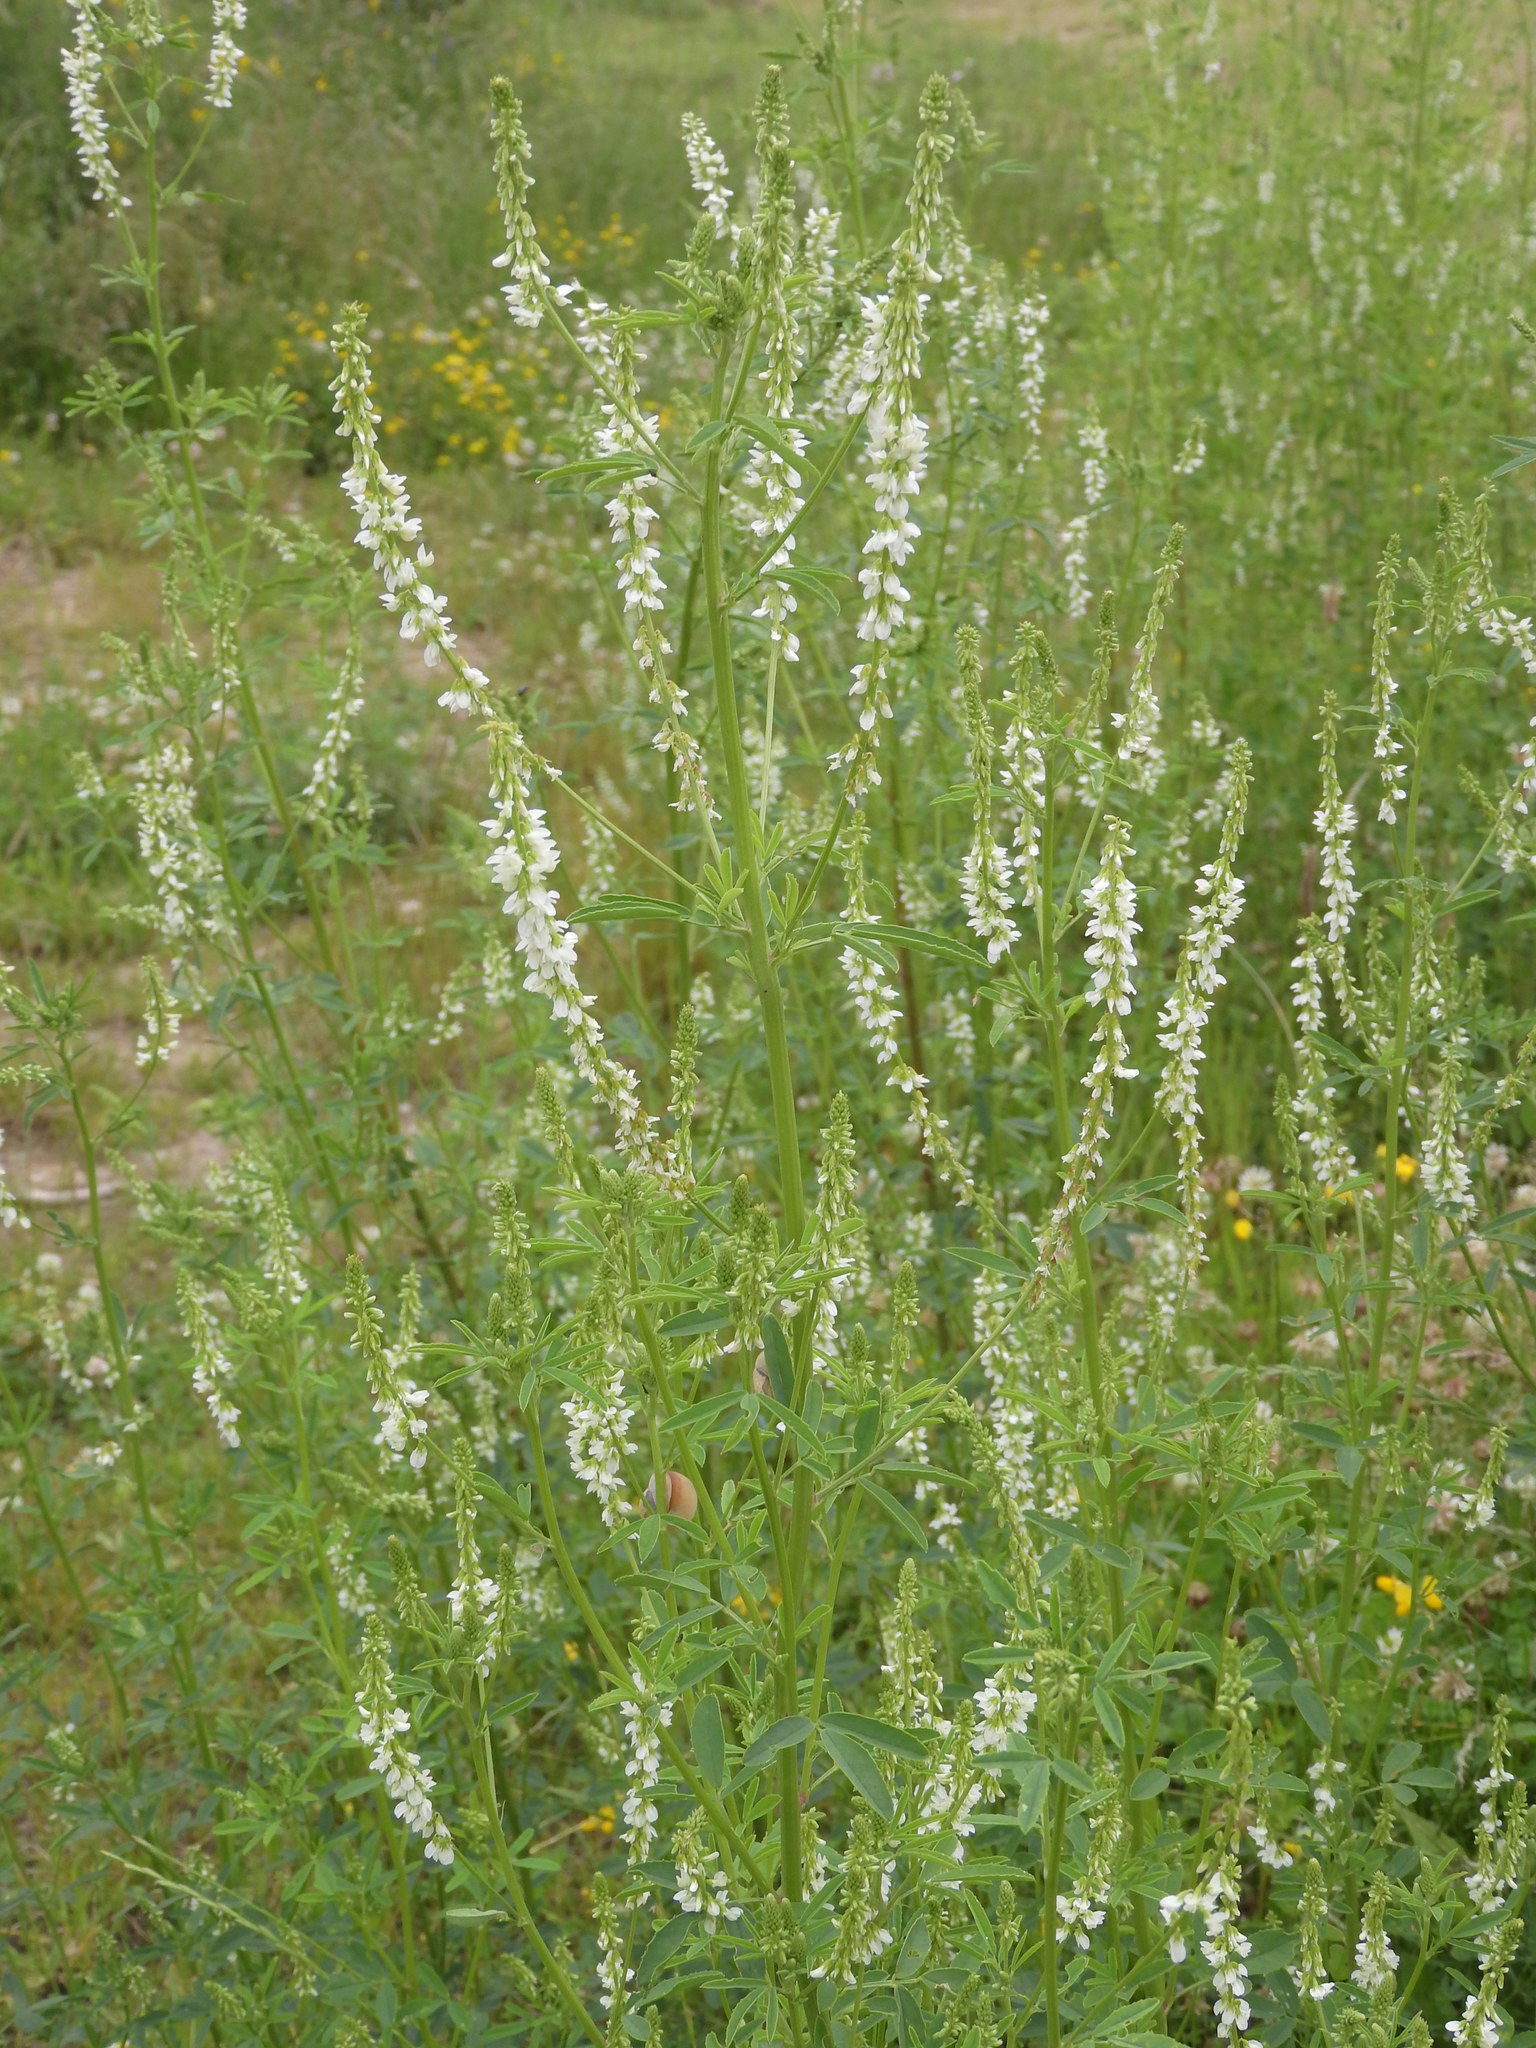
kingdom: Plantae
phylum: Tracheophyta
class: Magnoliopsida
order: Fabales
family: Fabaceae
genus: Melilotus
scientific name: Melilotus albus
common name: White melilot
